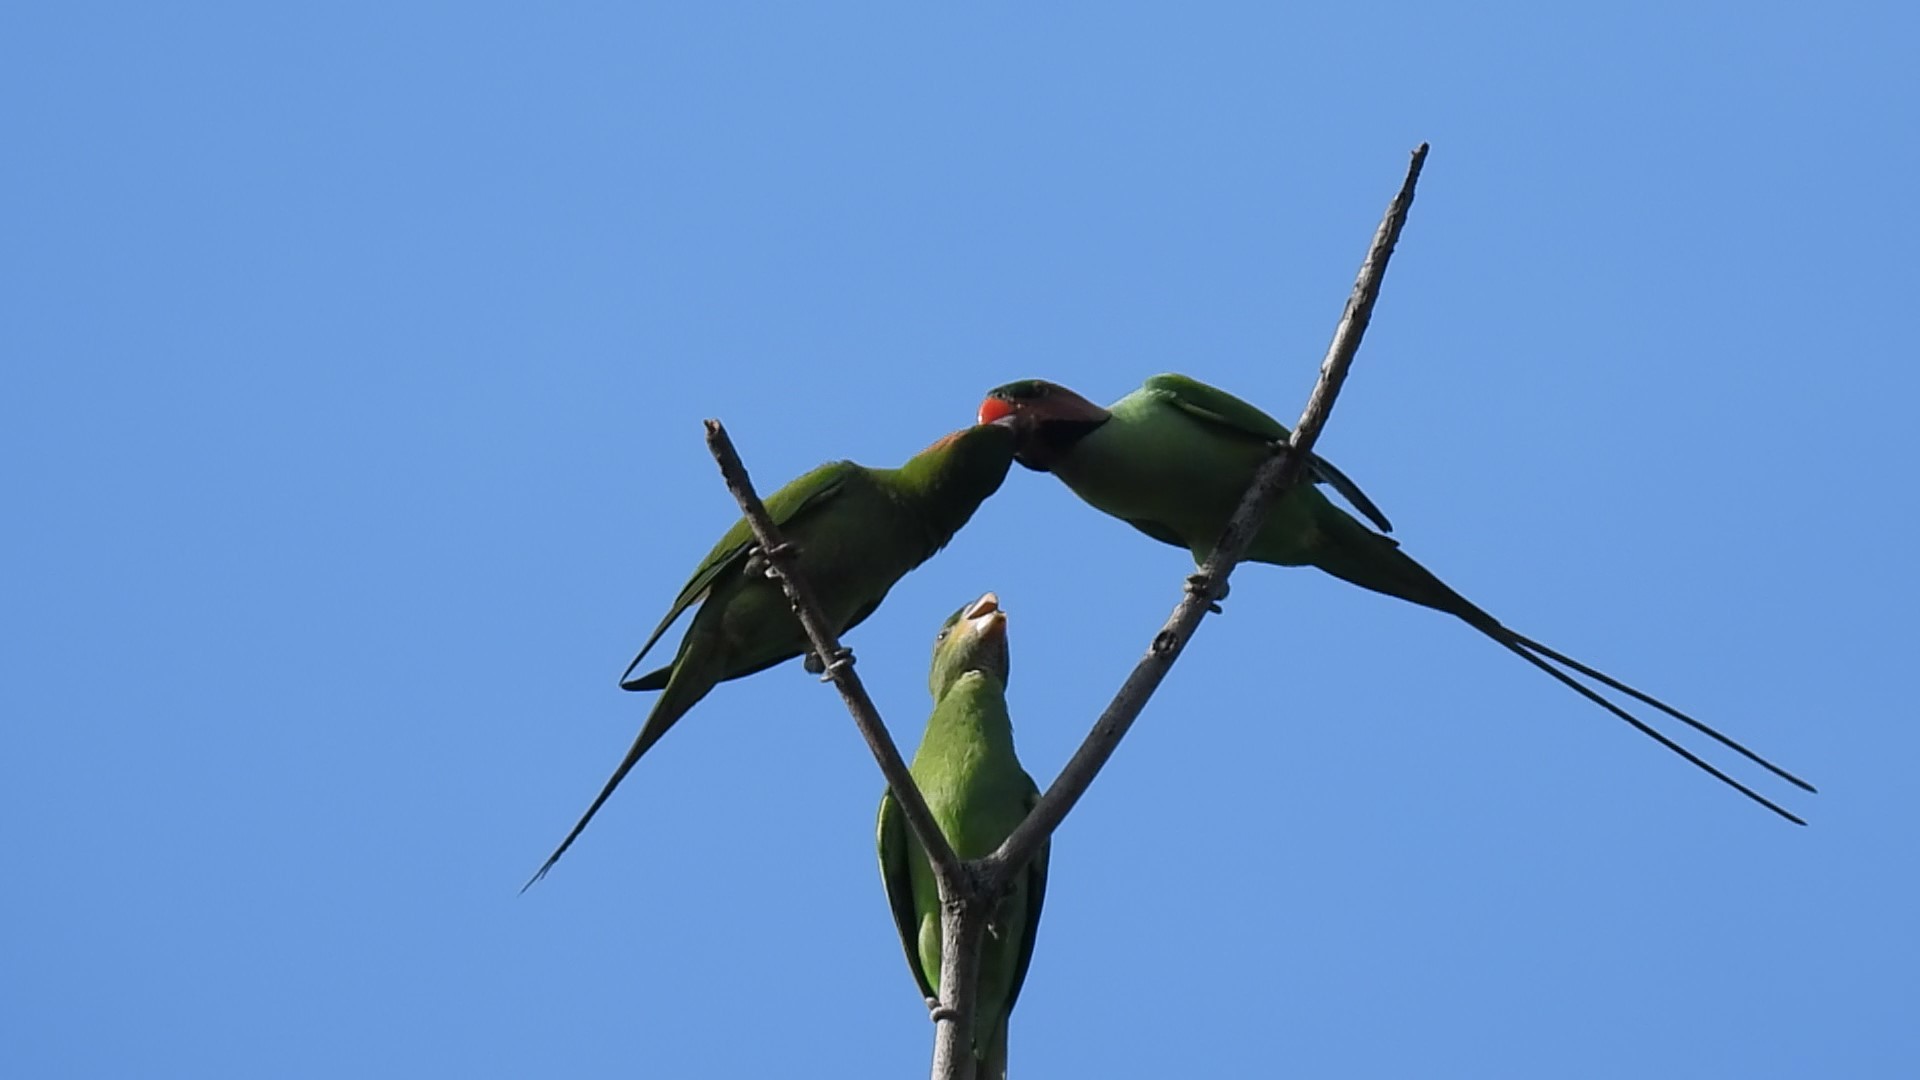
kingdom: Animalia
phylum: Chordata
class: Aves
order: Psittaciformes
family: Psittacidae
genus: Psittacula
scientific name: Psittacula longicauda
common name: Long-tailed parakeet
